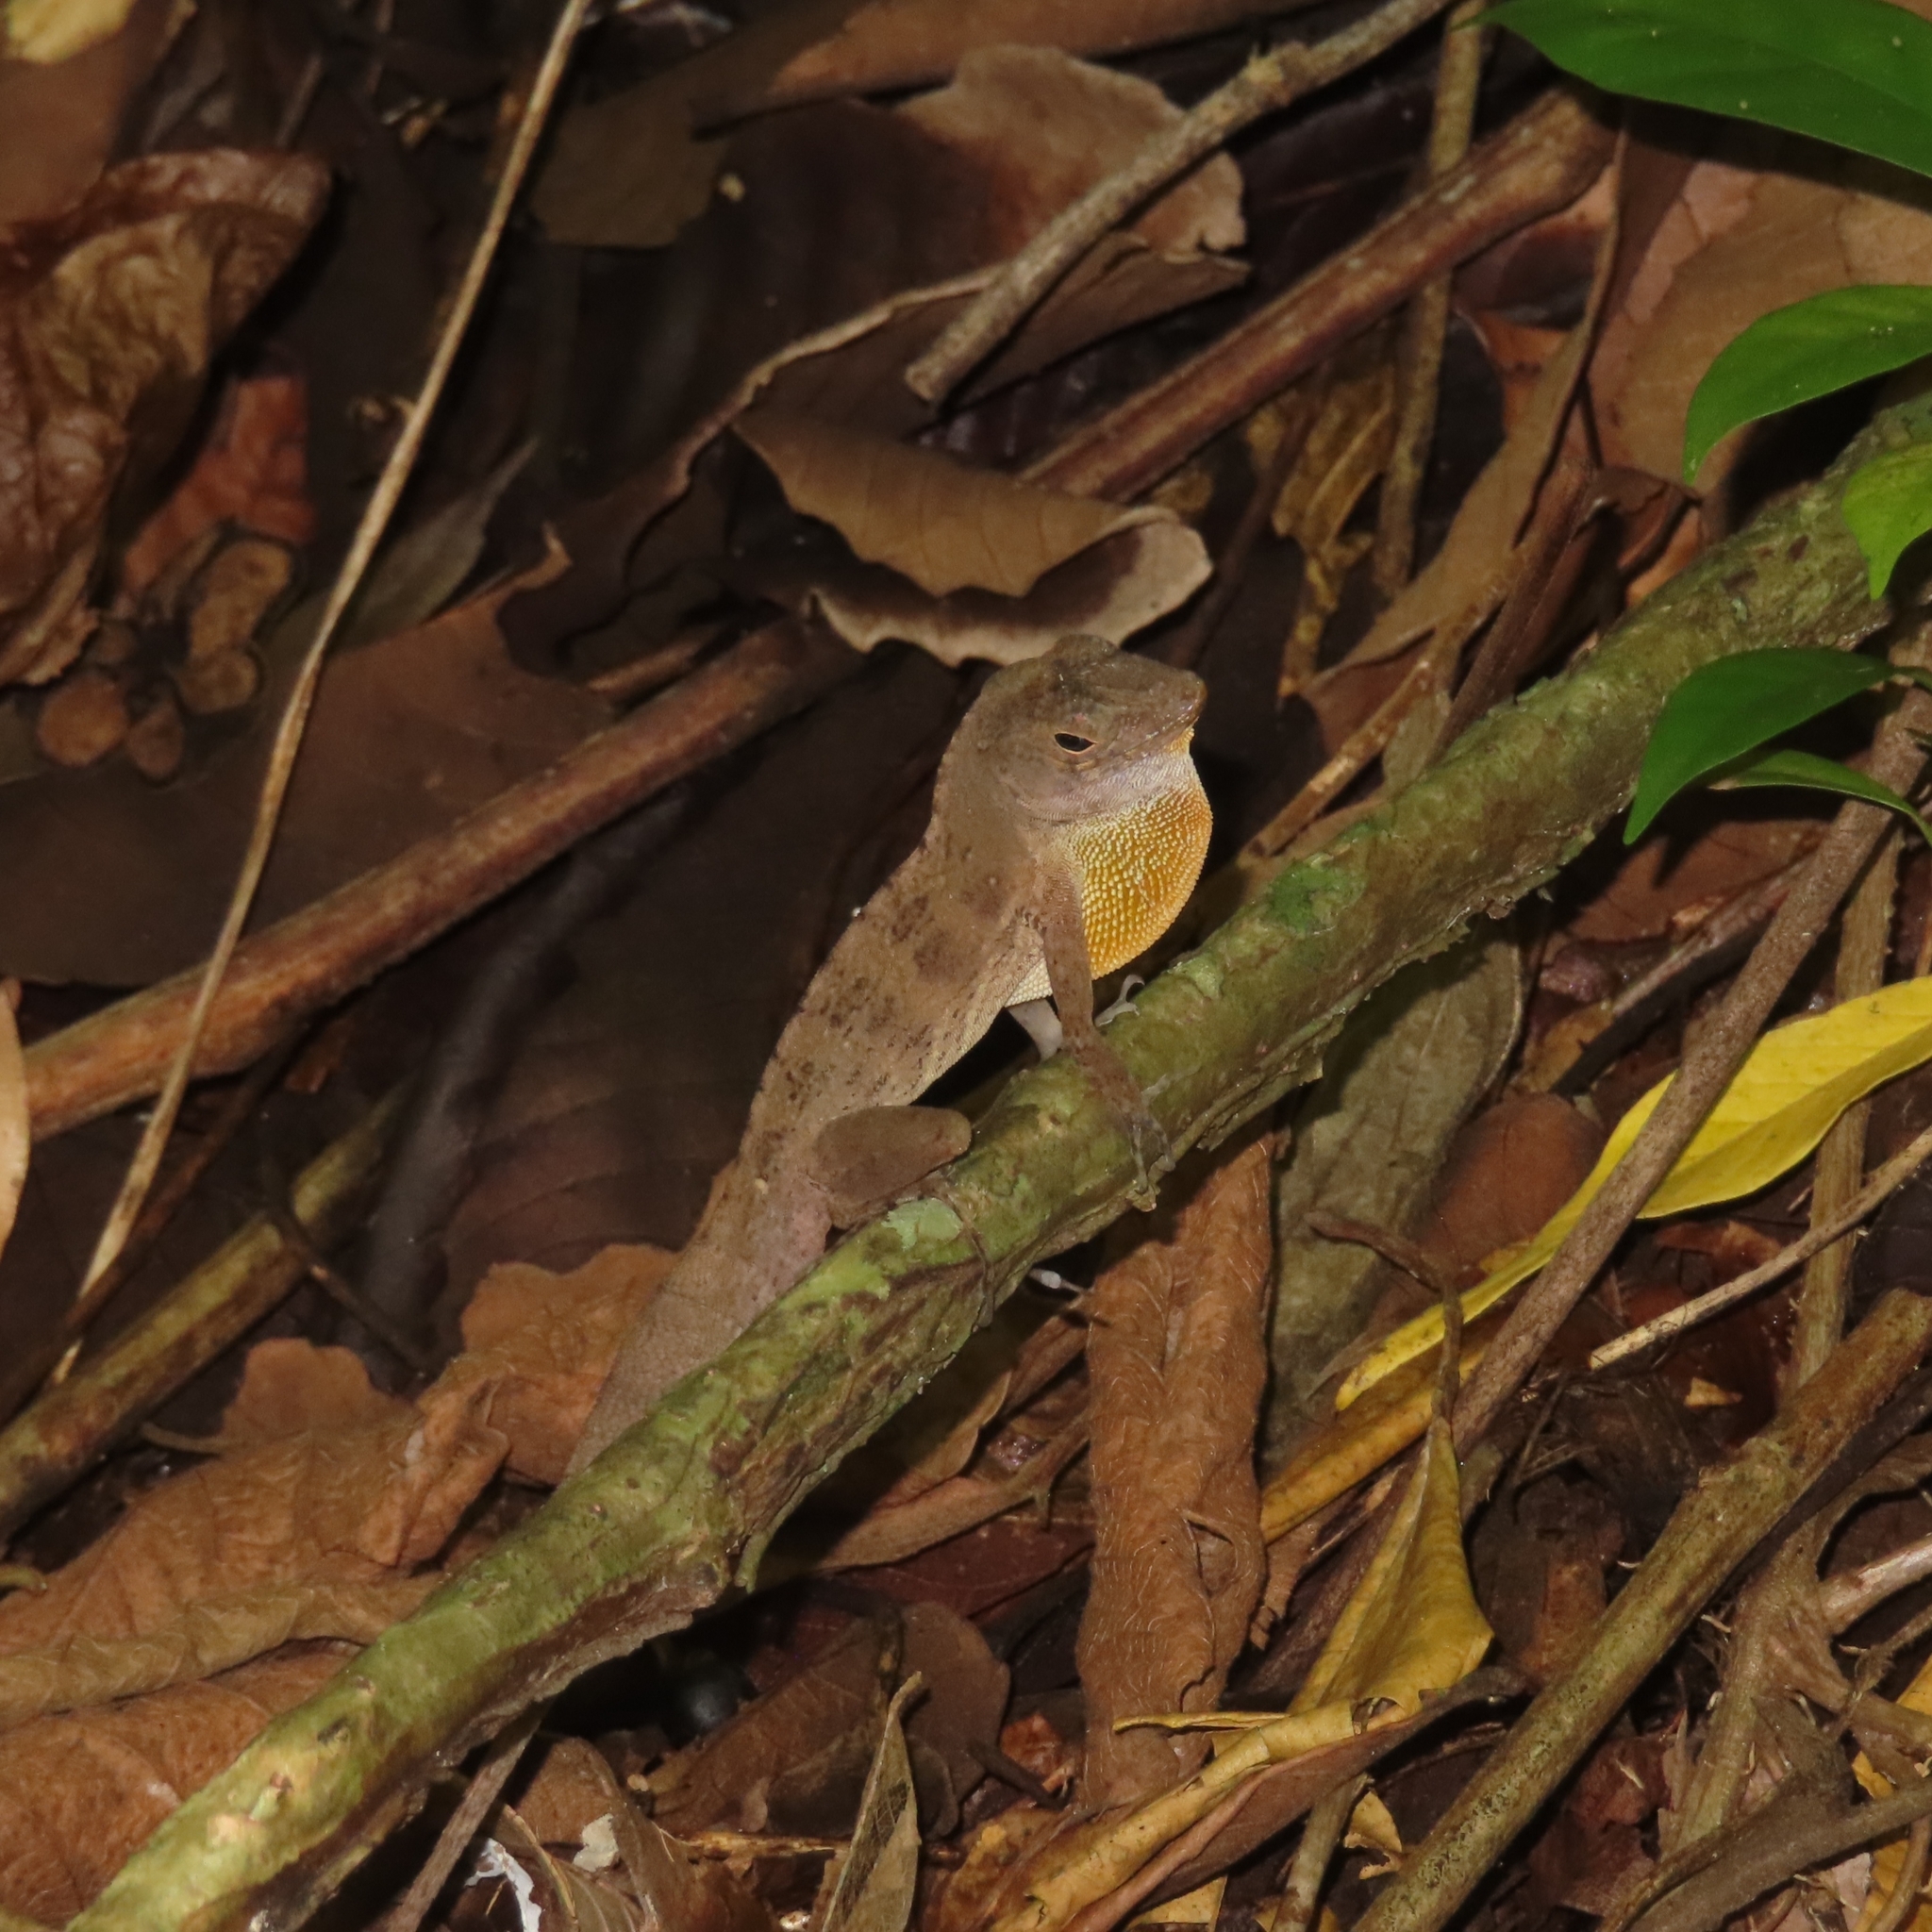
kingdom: Animalia
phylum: Chordata
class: Squamata
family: Dactyloidae
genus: Anolis
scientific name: Anolis gundlachi
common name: Gundlach’s anole
